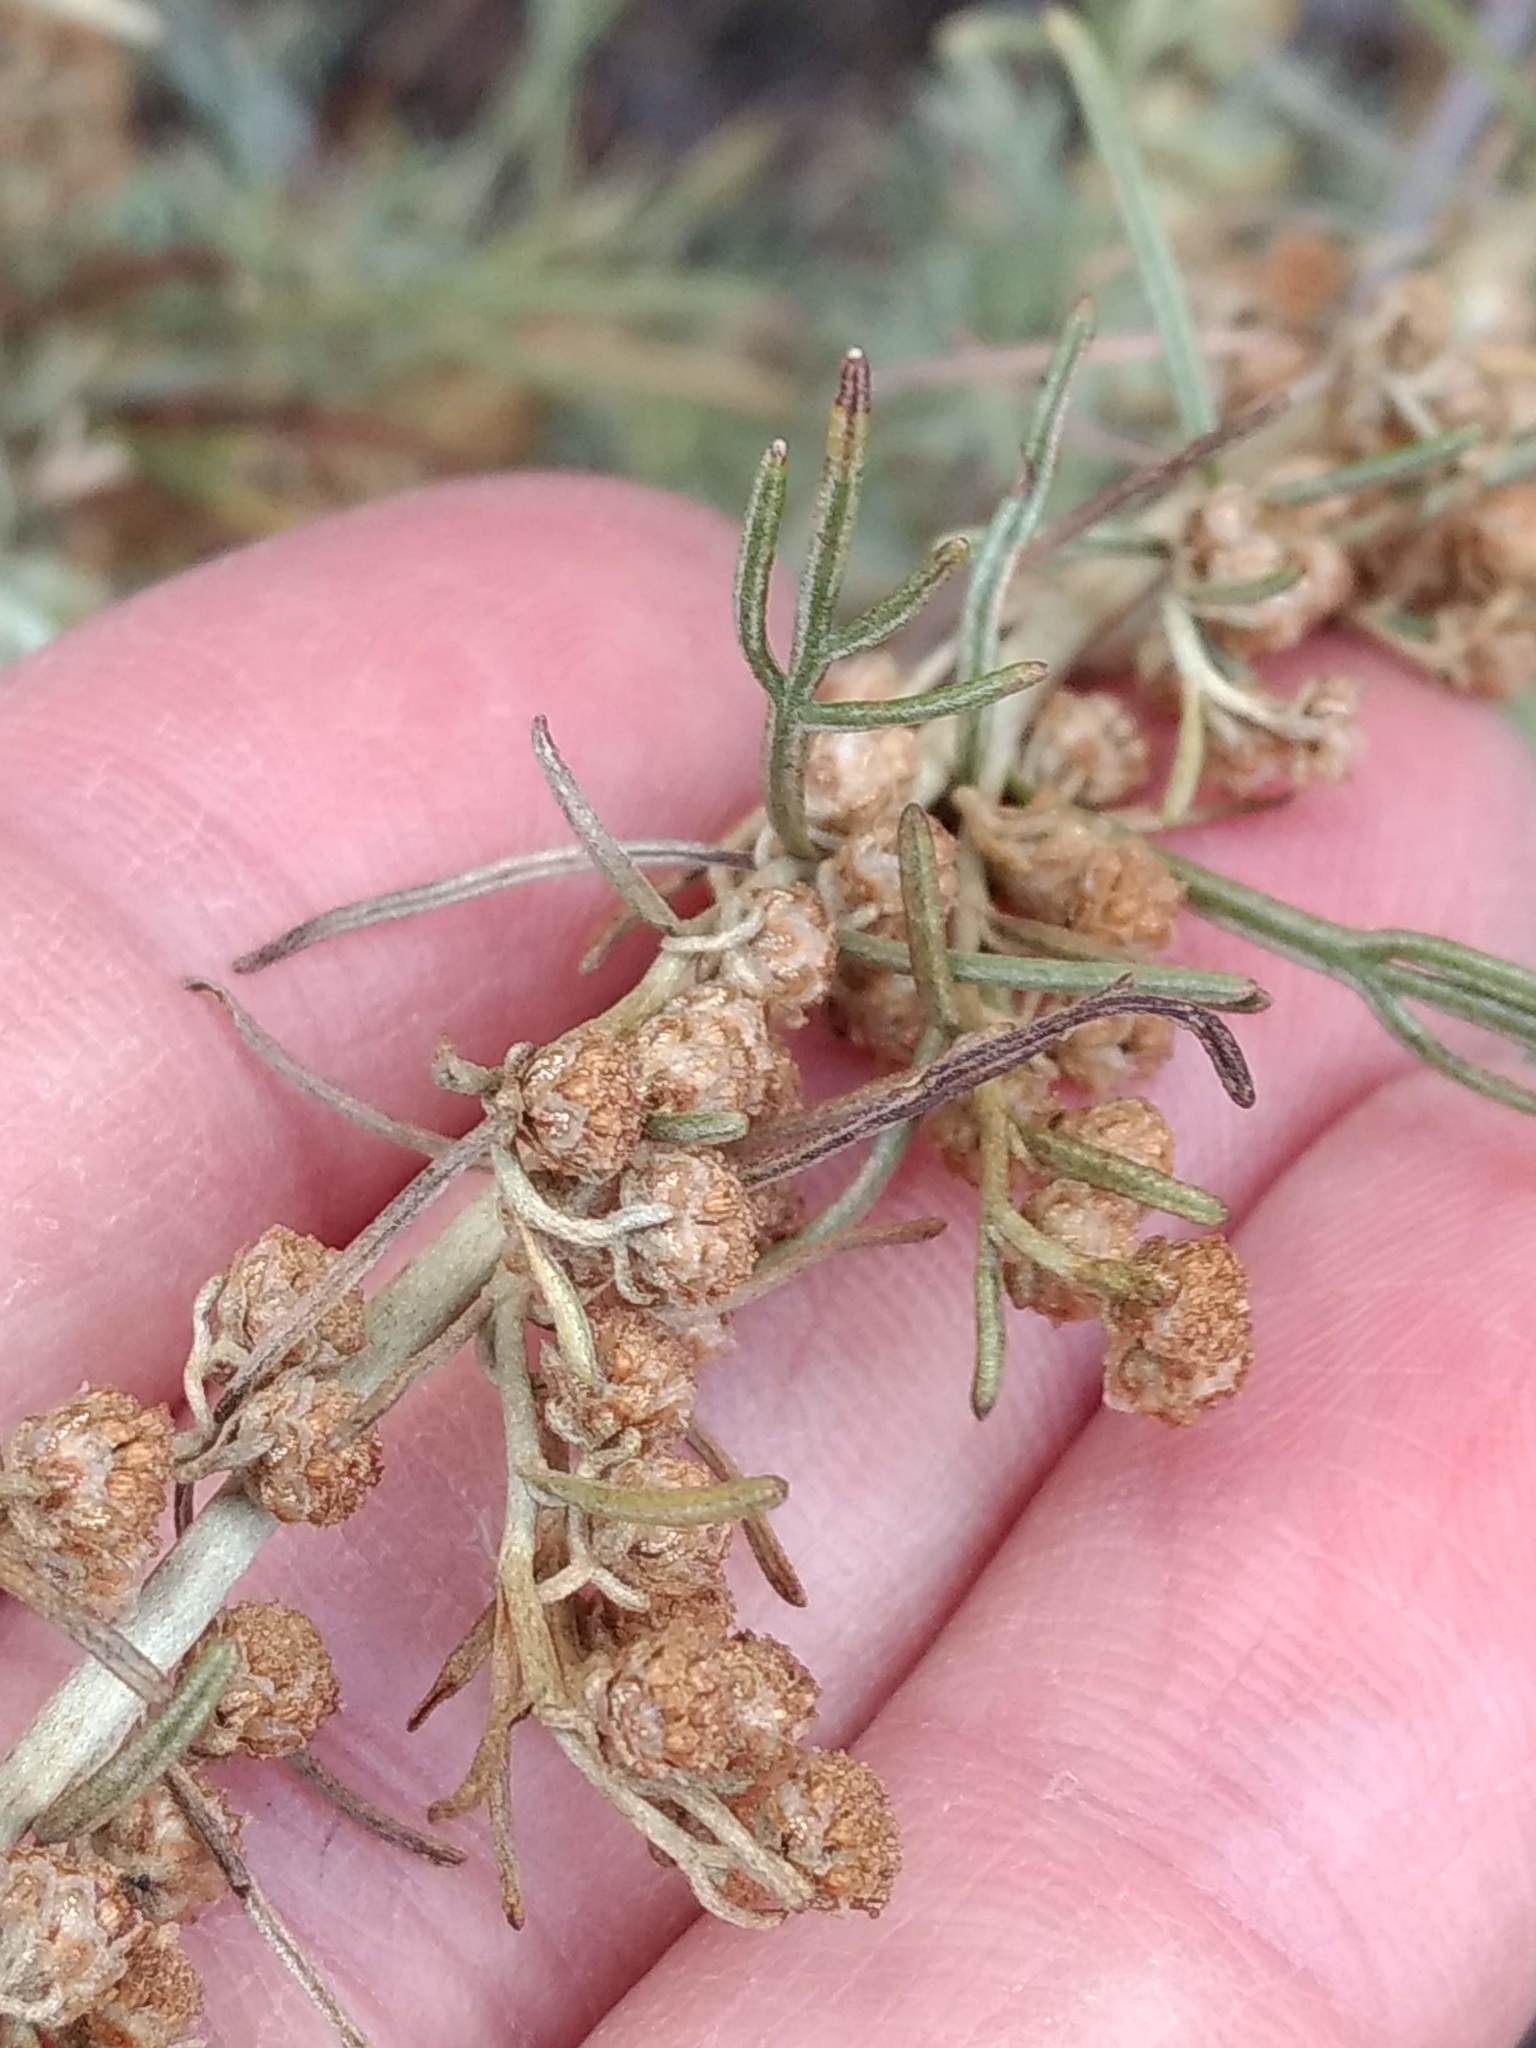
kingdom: Plantae
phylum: Tracheophyta
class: Magnoliopsida
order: Asterales
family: Asteraceae
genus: Artemisia
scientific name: Artemisia californica
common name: California sagebrush
